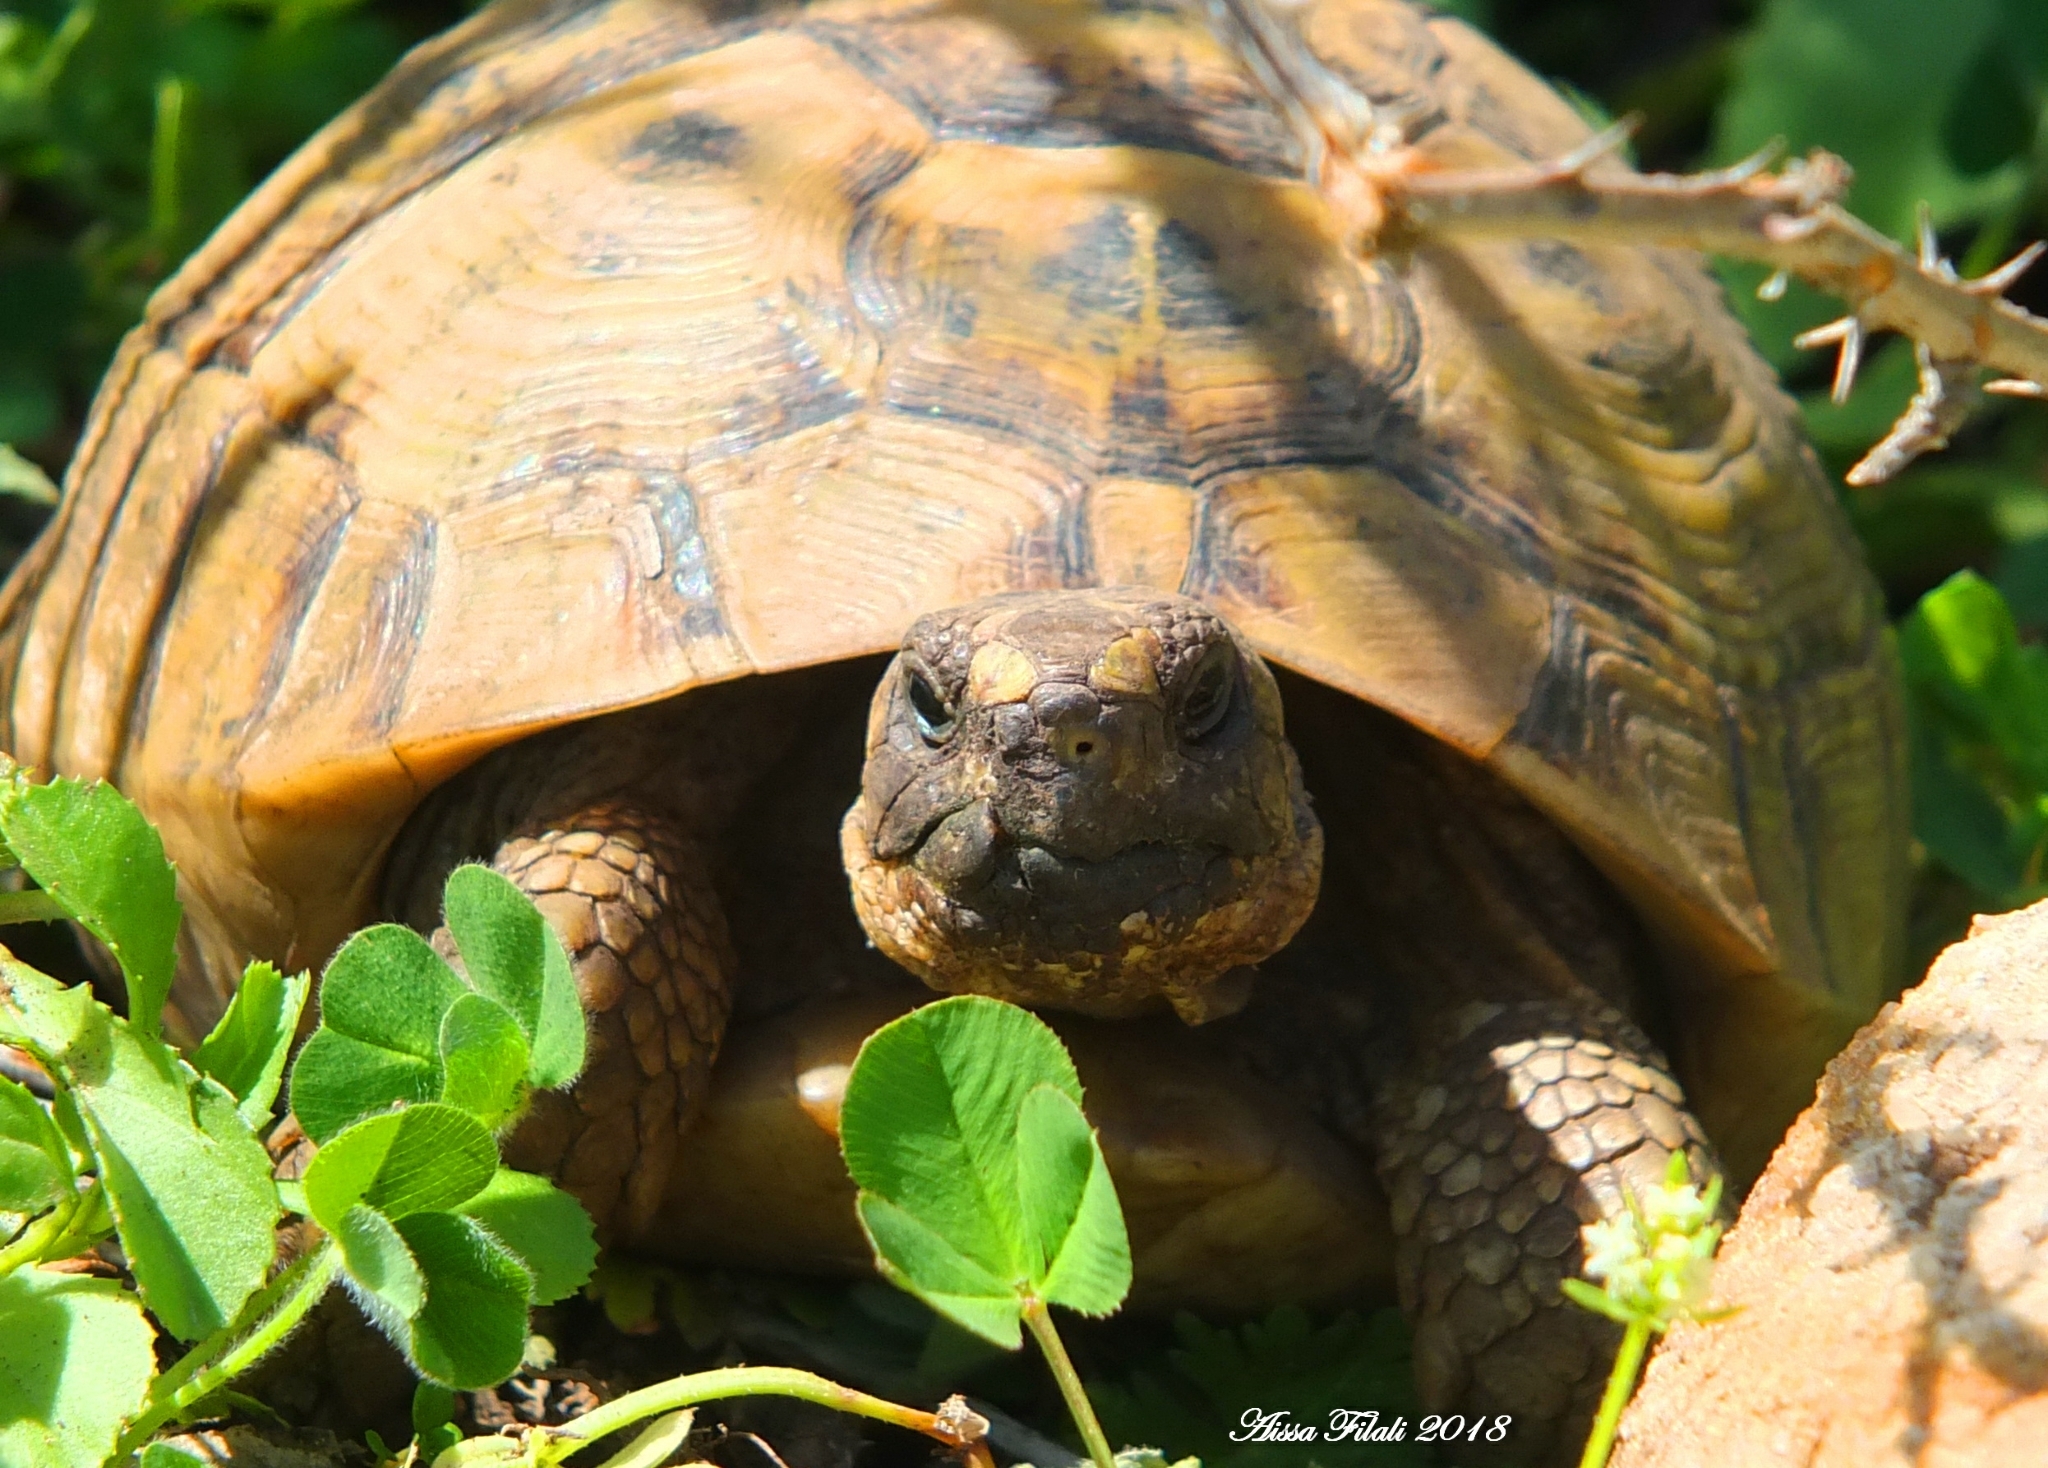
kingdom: Animalia
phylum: Chordata
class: Testudines
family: Testudinidae
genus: Testudo
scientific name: Testudo graeca
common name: Common tortoise
